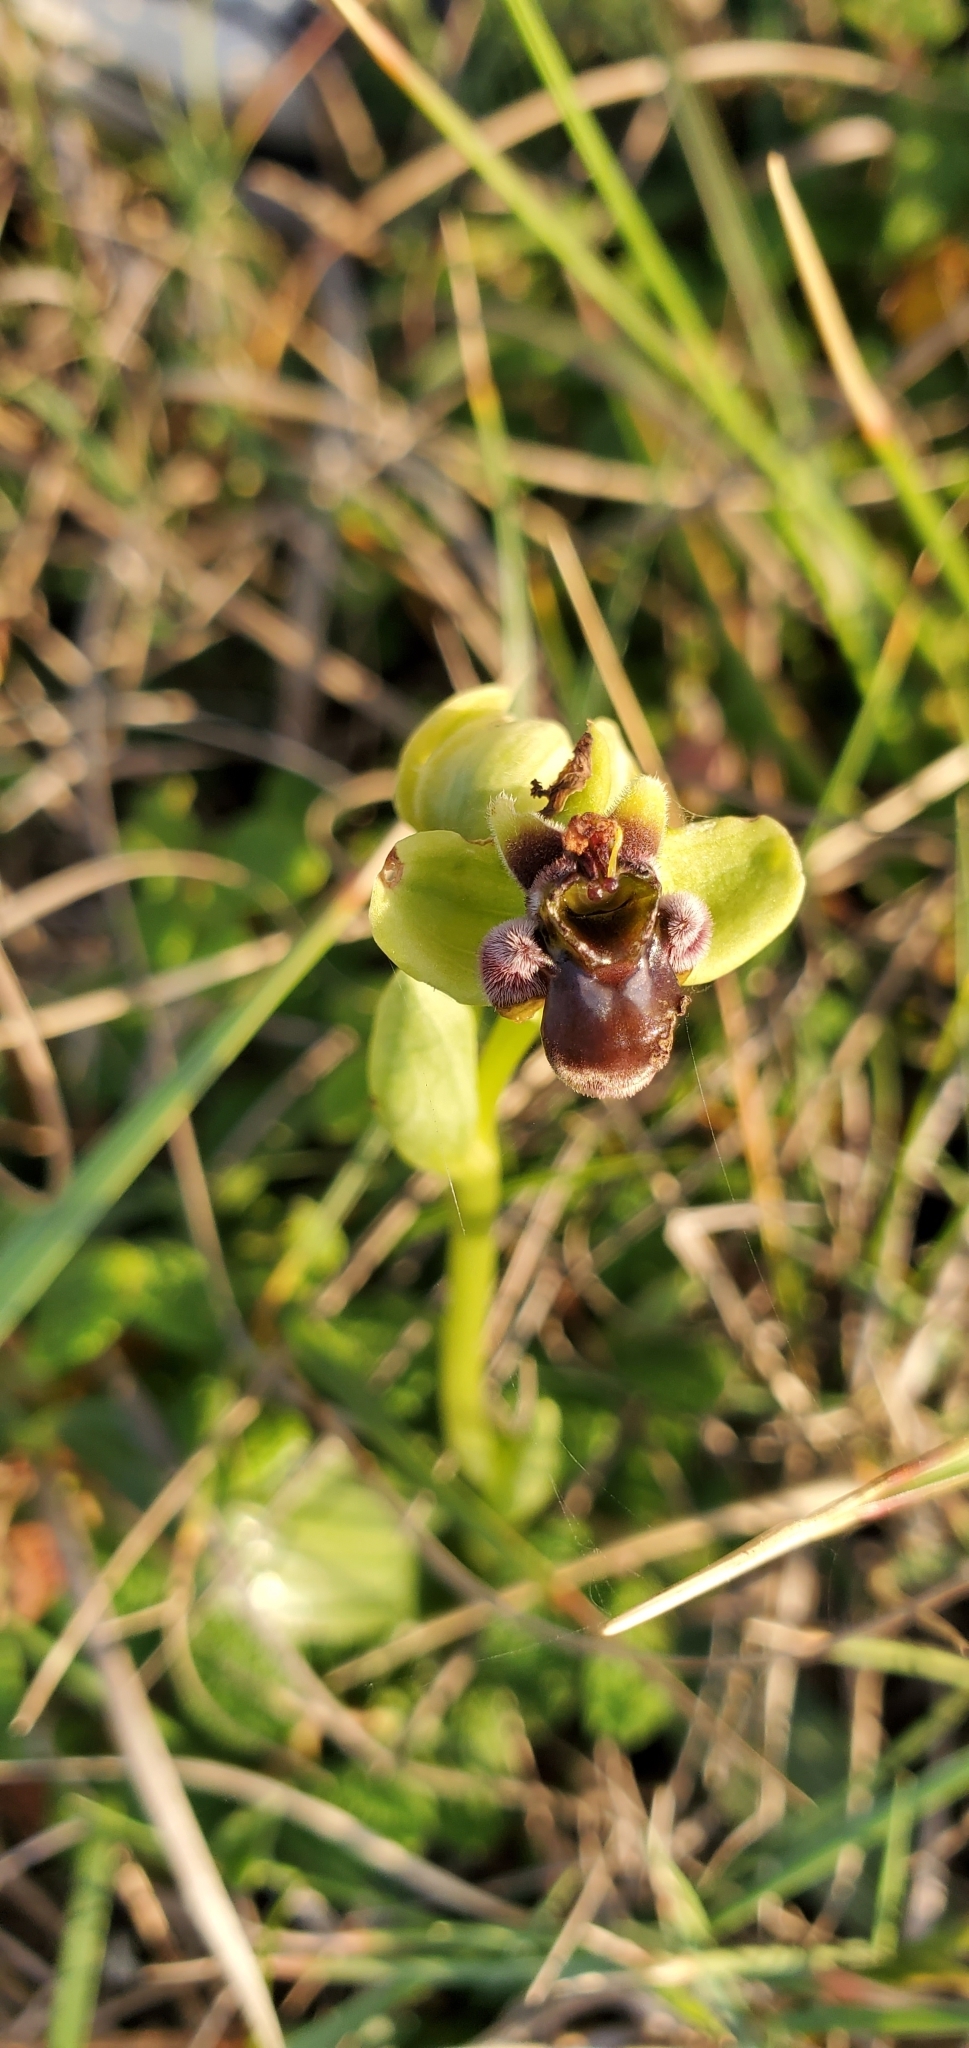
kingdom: Plantae
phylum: Tracheophyta
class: Liliopsida
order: Asparagales
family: Orchidaceae
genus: Ophrys
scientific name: Ophrys bombyliflora
